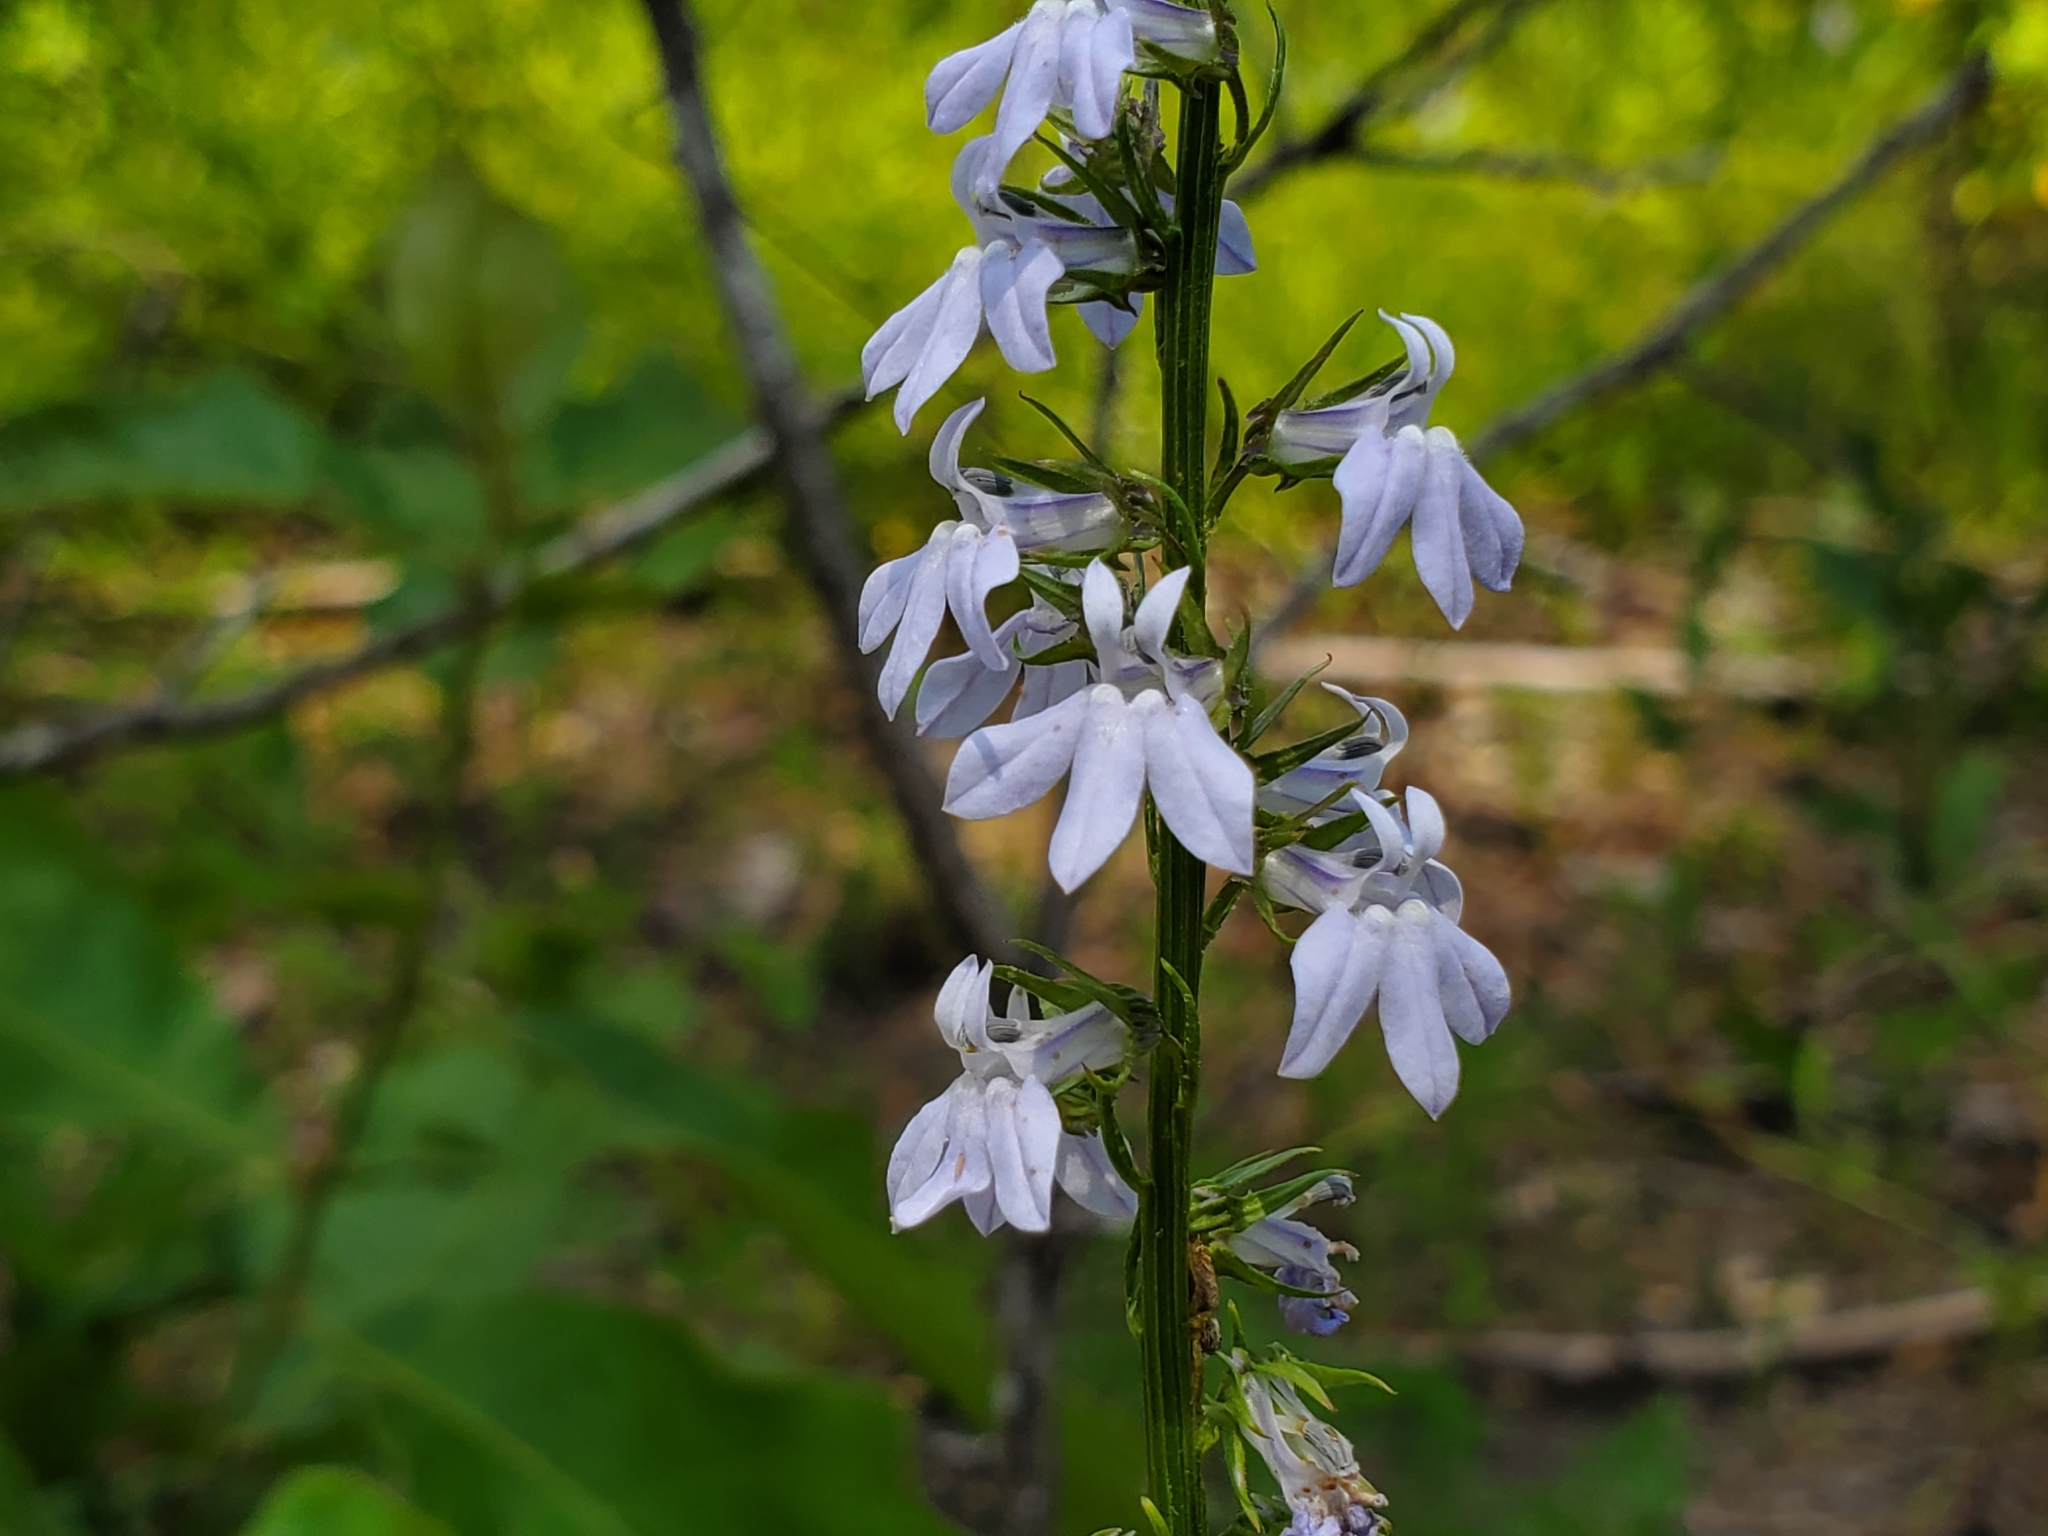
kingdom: Plantae
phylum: Tracheophyta
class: Magnoliopsida
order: Asterales
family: Campanulaceae
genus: Lobelia
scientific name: Lobelia appendiculata
